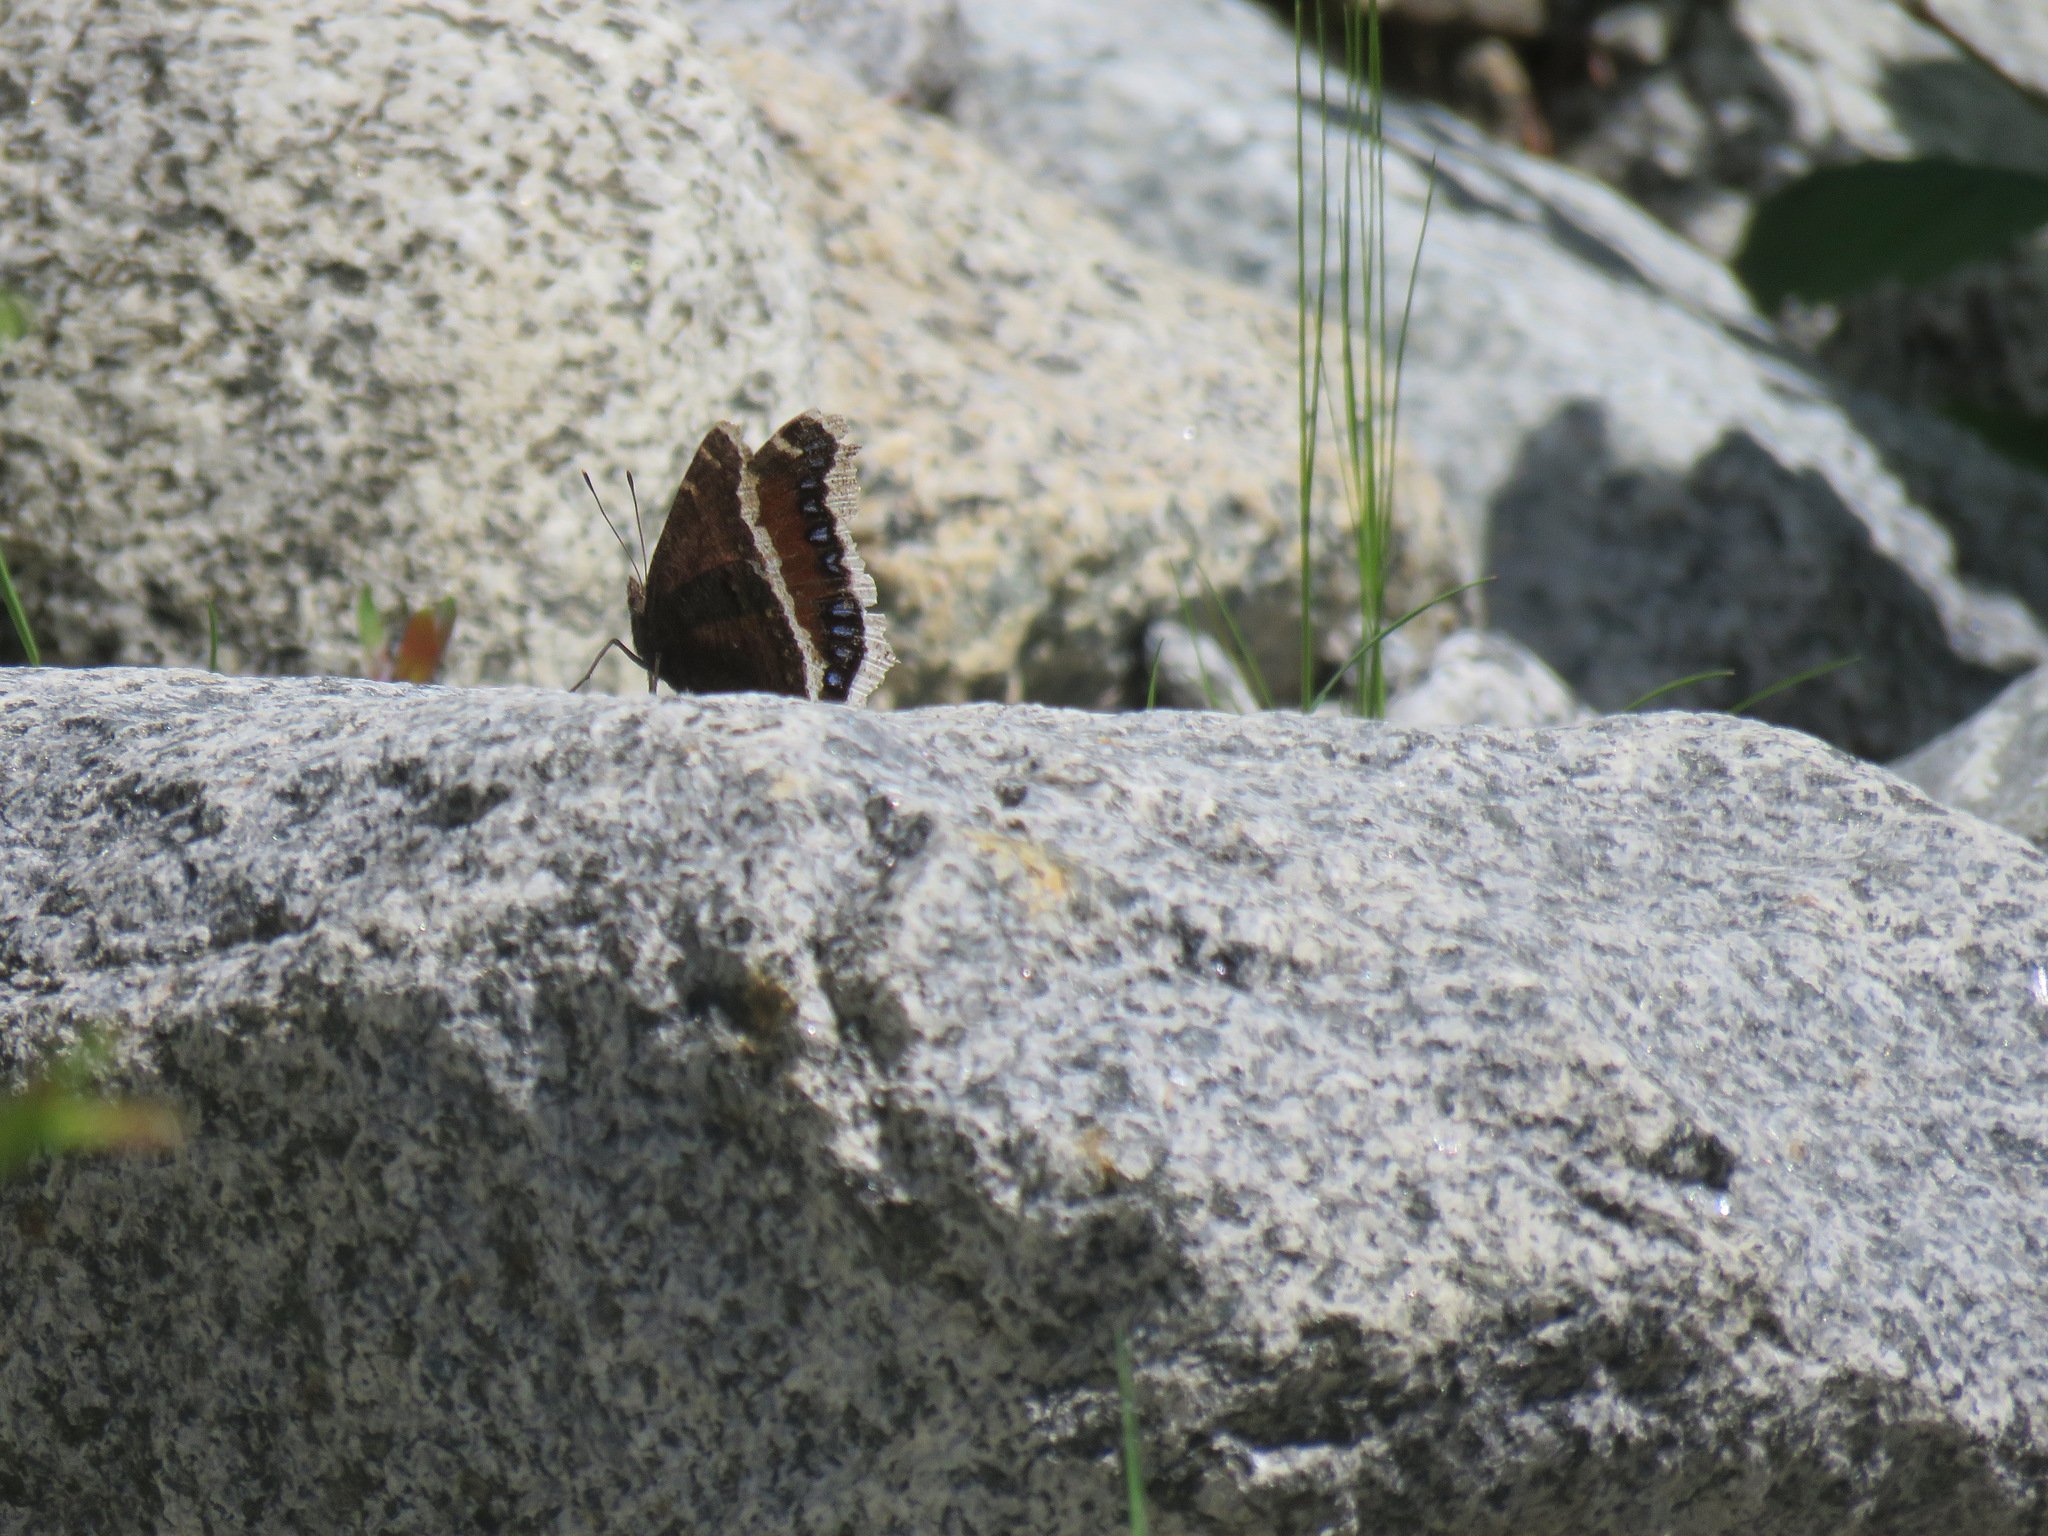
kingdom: Animalia
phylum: Arthropoda
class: Insecta
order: Lepidoptera
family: Nymphalidae
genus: Nymphalis
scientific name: Nymphalis antiopa
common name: Camberwell beauty
